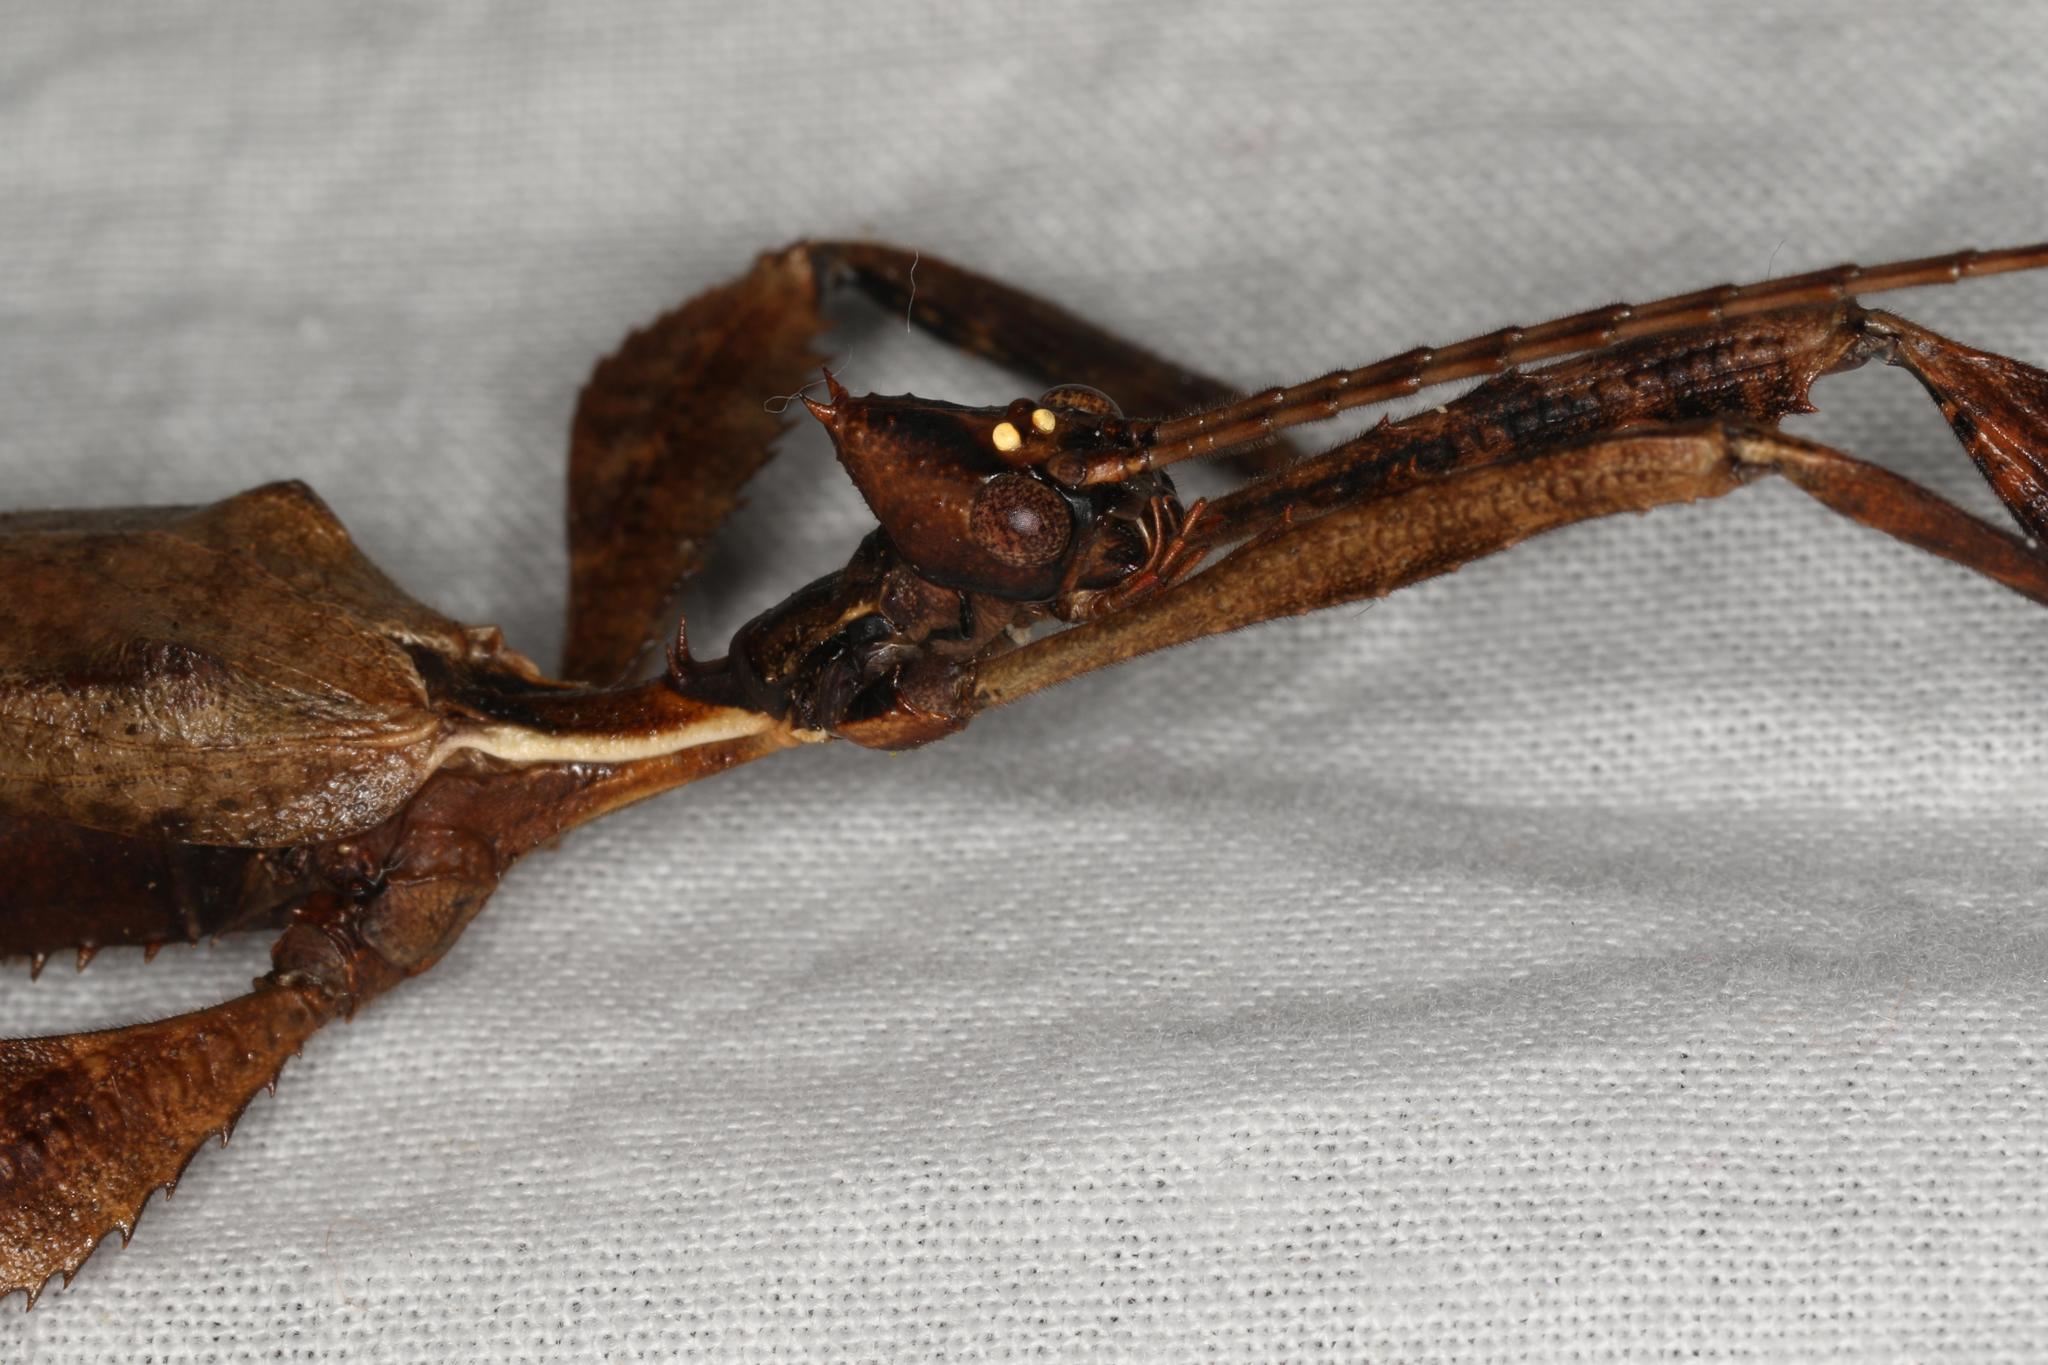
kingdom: Animalia
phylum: Arthropoda
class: Insecta
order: Phasmida
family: Phasmatidae
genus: Extatosoma
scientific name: Extatosoma tiaratum
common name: Macleay's spectre
